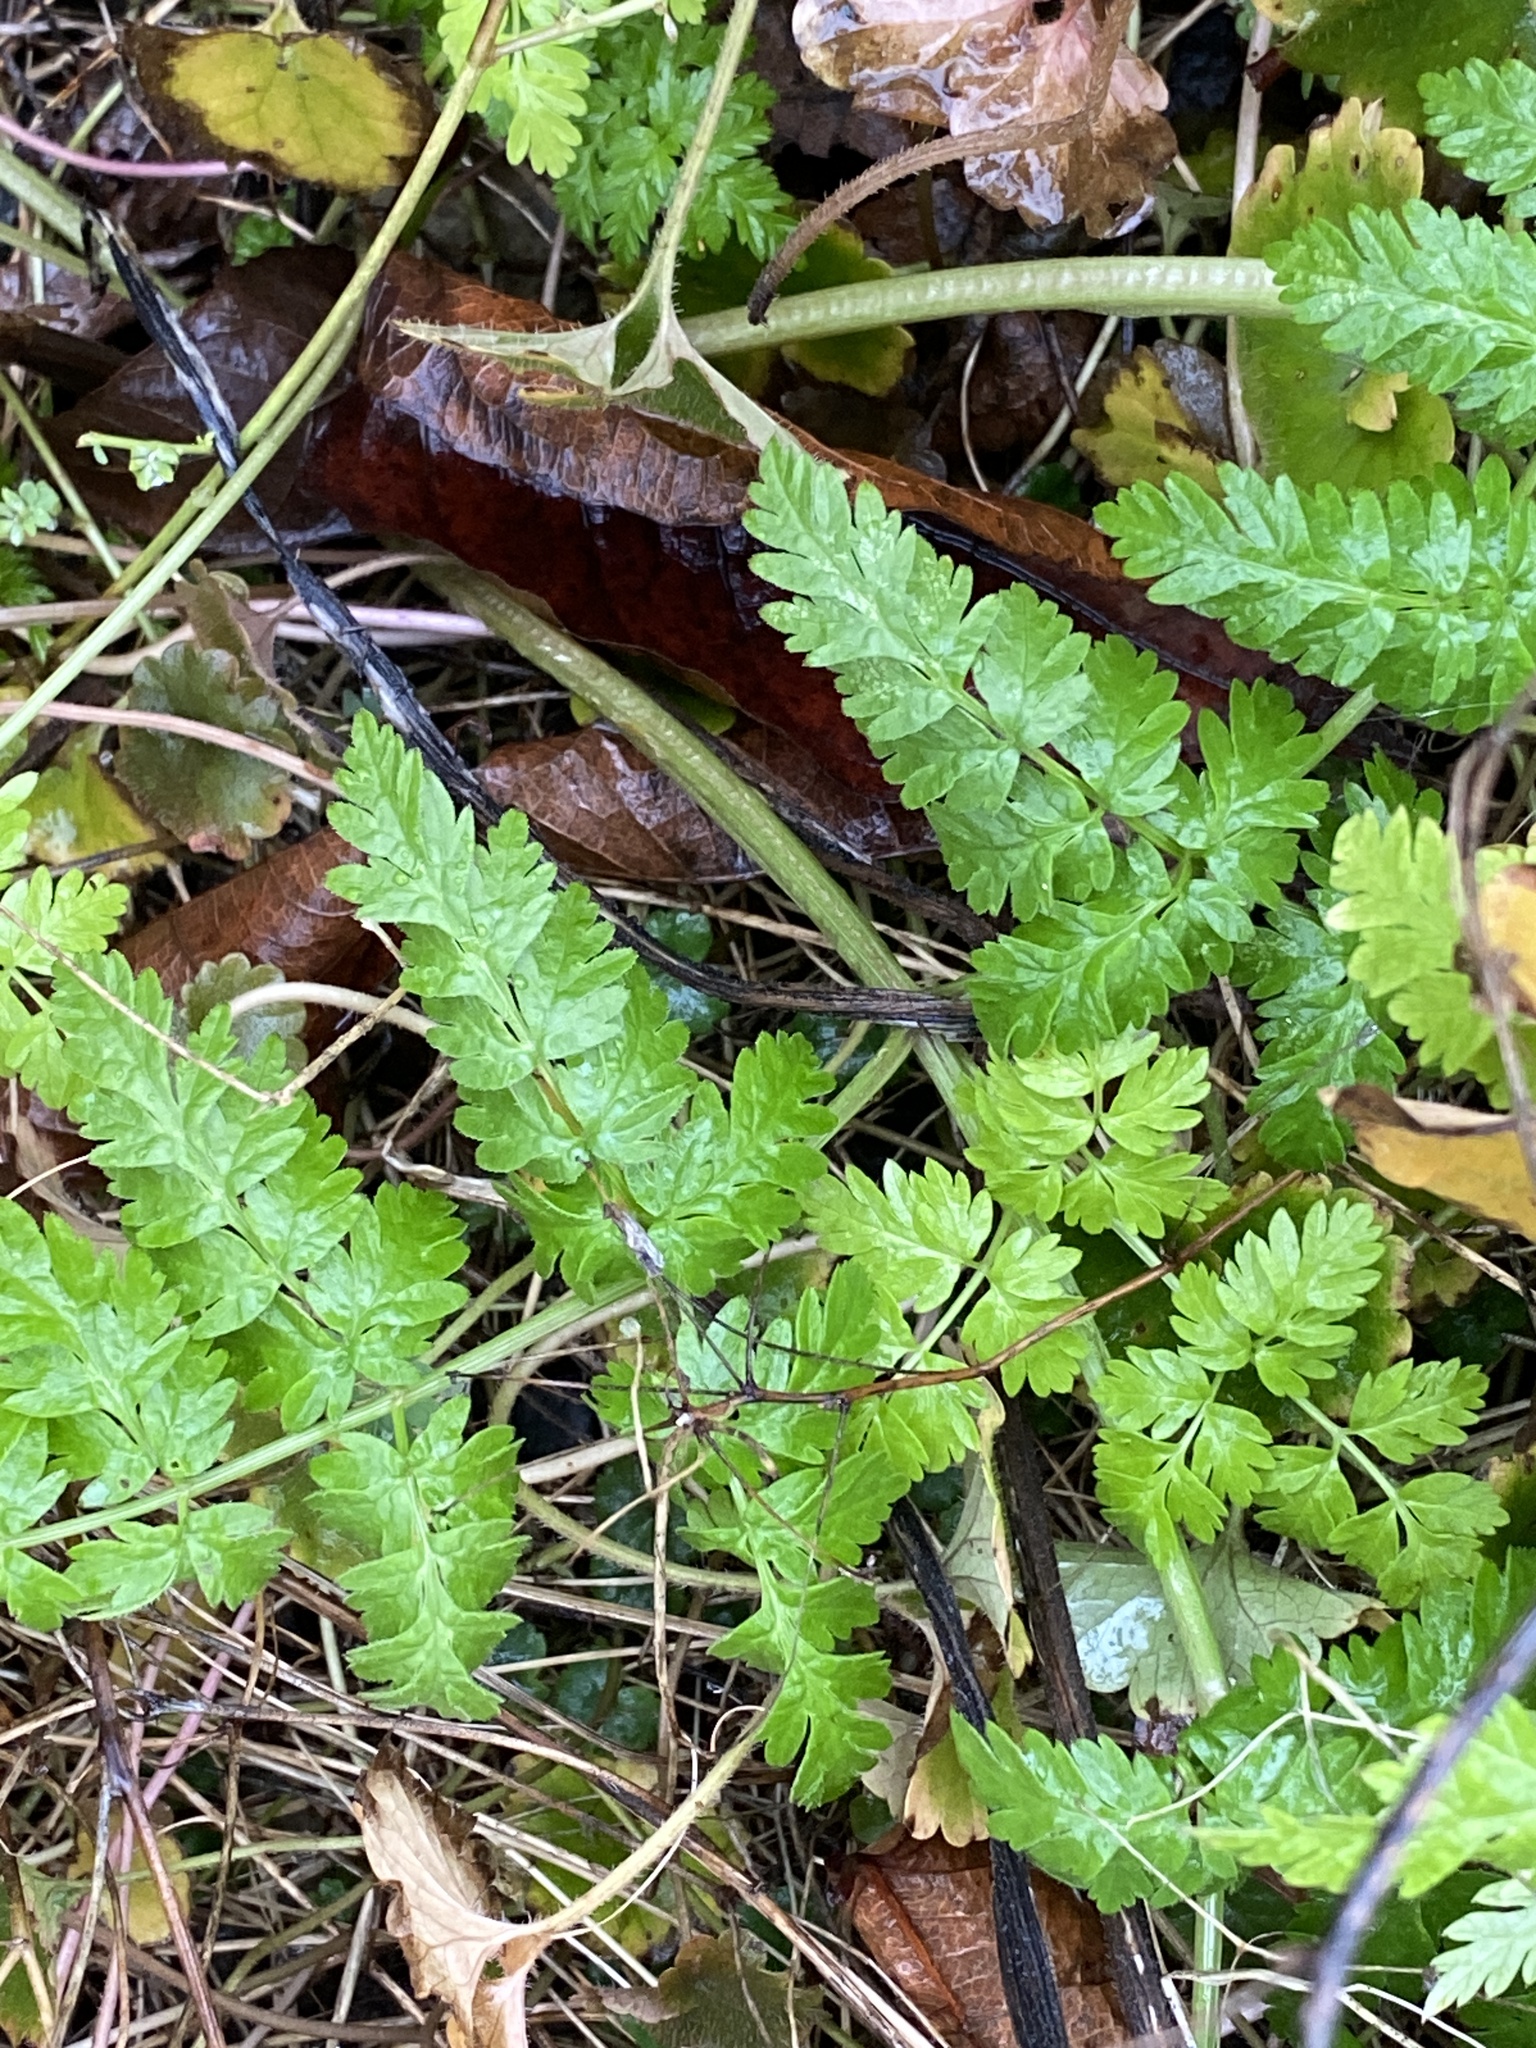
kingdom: Plantae
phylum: Tracheophyta
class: Magnoliopsida
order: Apiales
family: Apiaceae
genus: Anthriscus
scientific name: Anthriscus sylvestris
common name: Cow parsley
